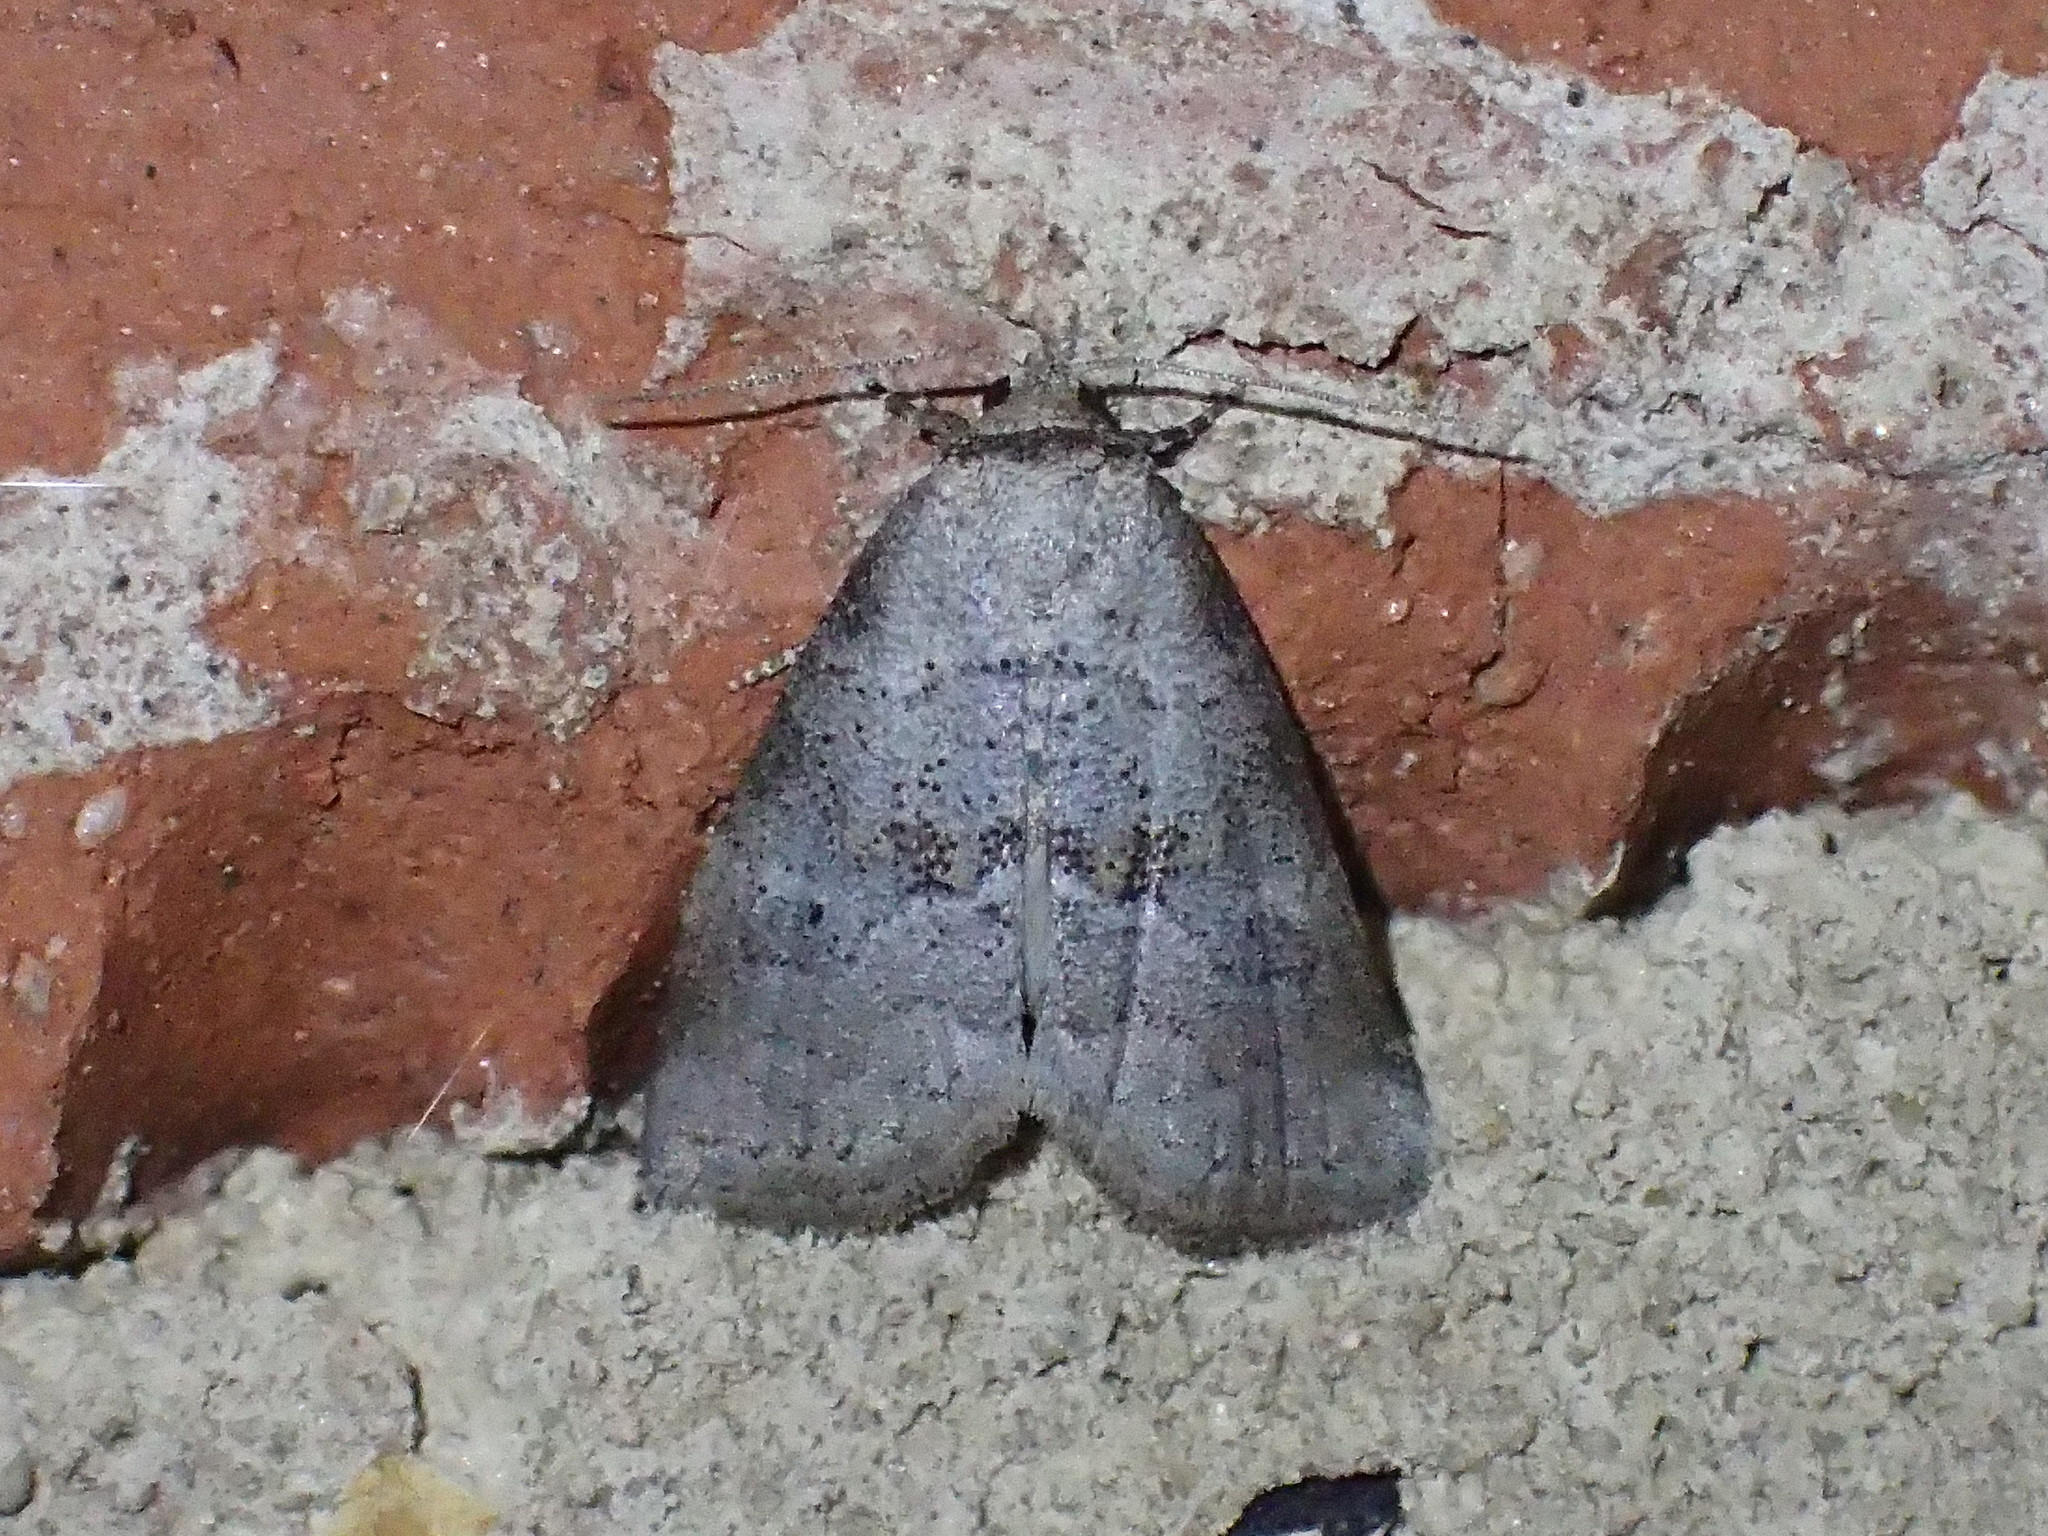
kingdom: Animalia
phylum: Arthropoda
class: Insecta
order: Lepidoptera
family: Erebidae
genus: Hyperstrotia
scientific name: Hyperstrotia pervertens
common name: Dotted graylet
